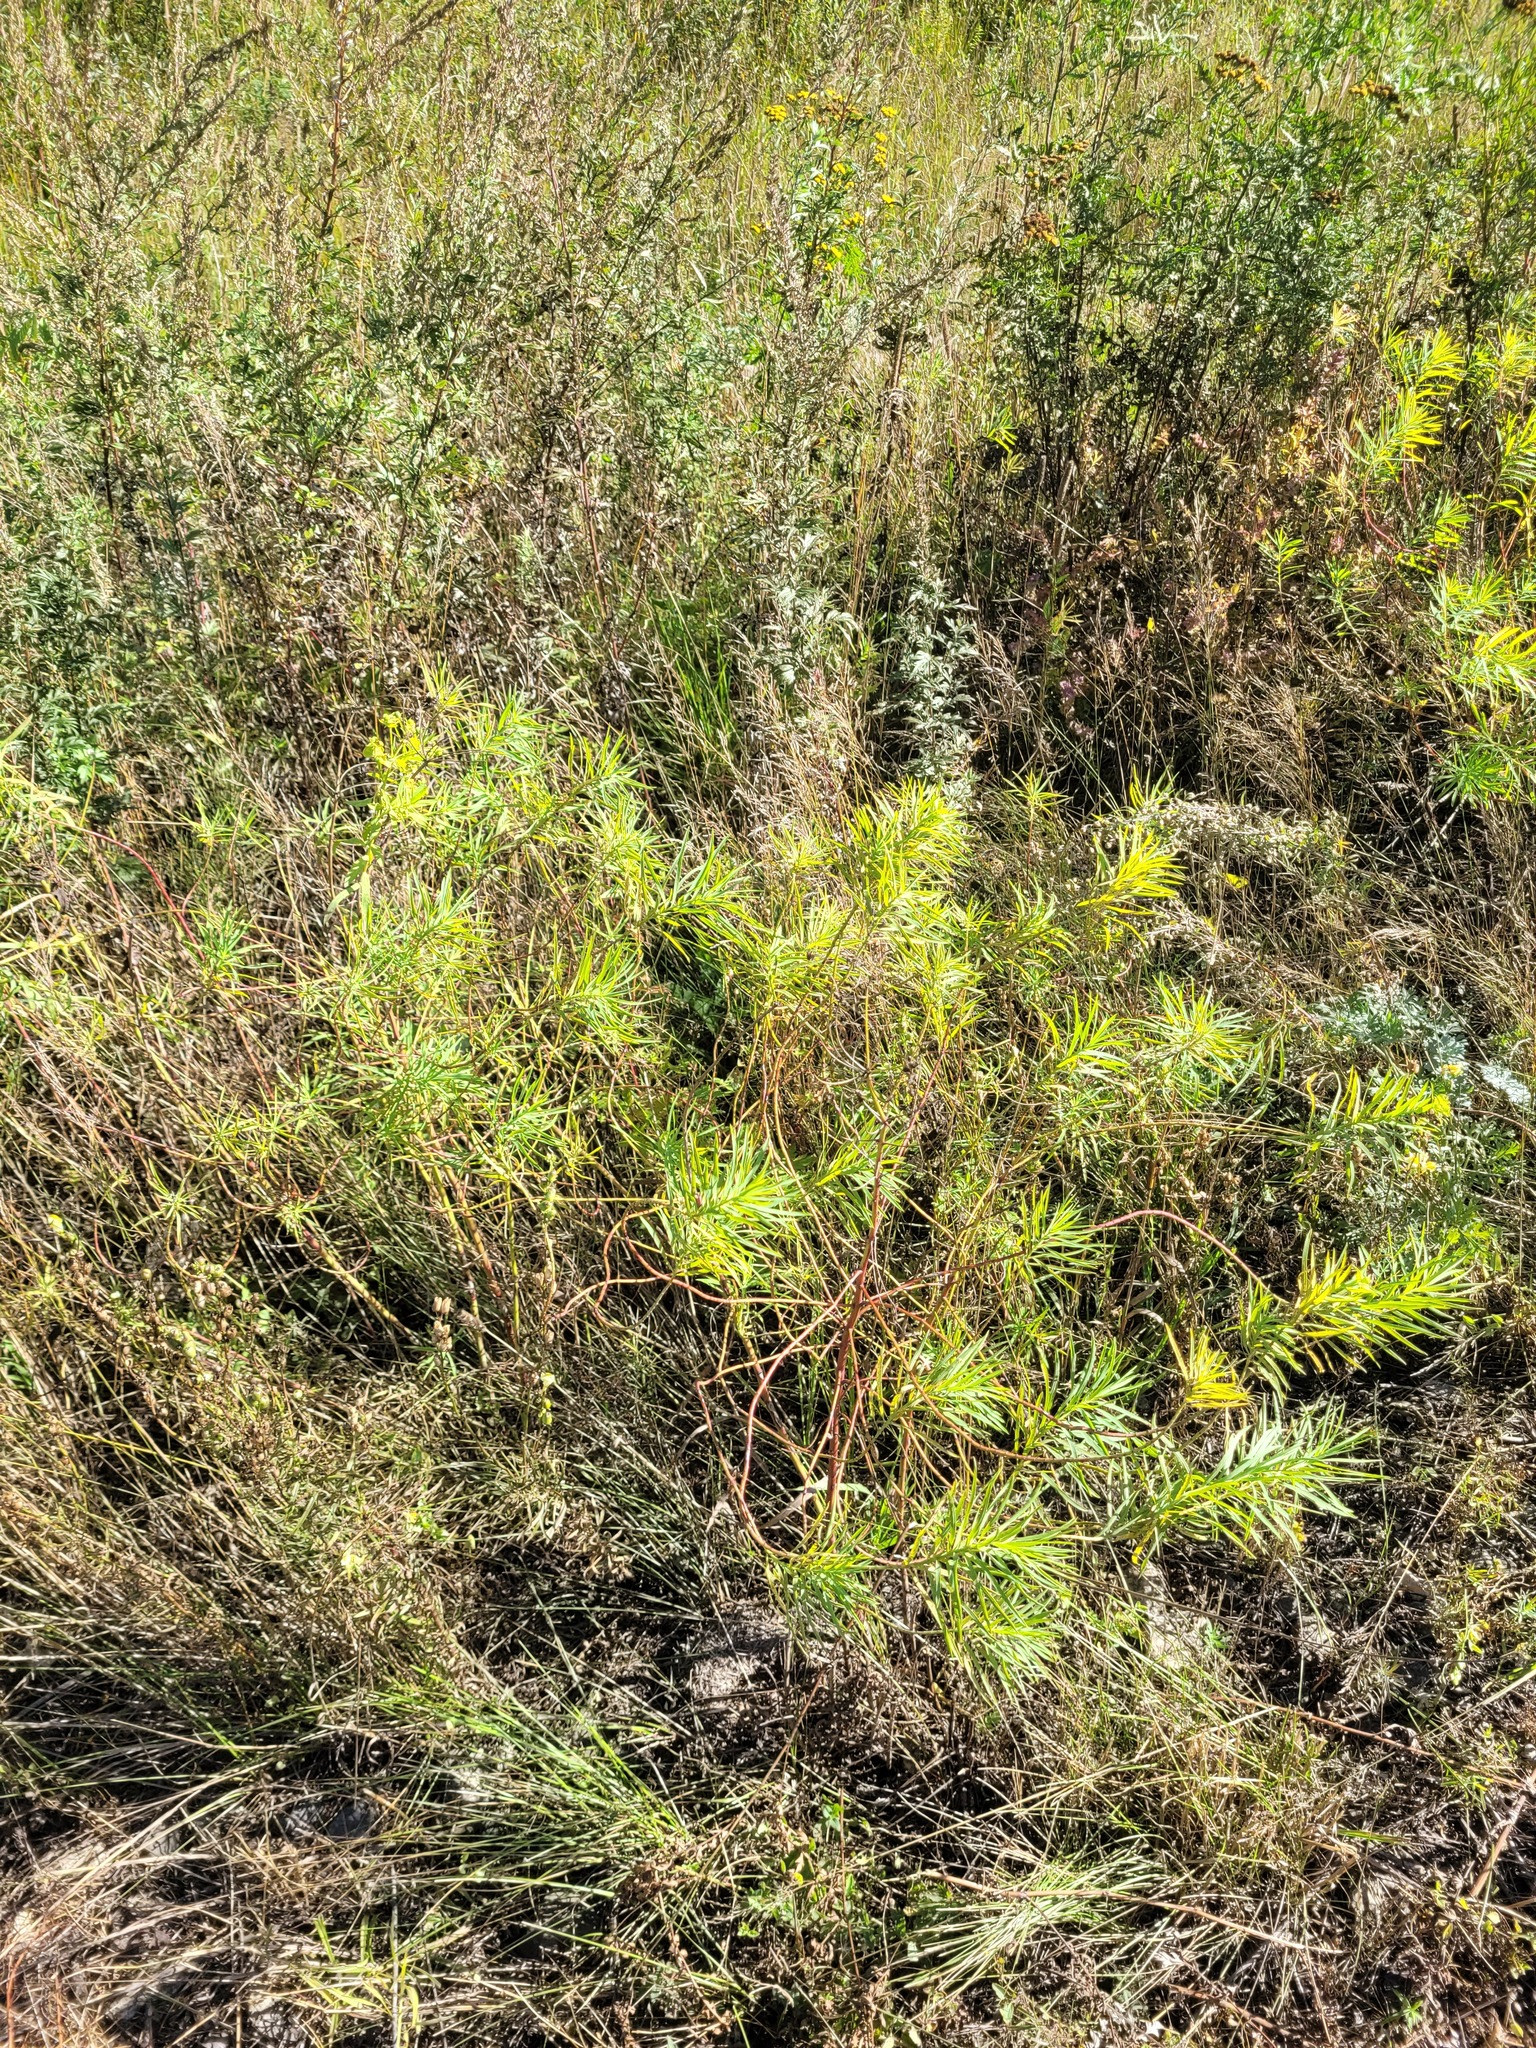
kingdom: Plantae
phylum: Tracheophyta
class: Magnoliopsida
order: Malpighiales
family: Euphorbiaceae
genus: Euphorbia
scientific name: Euphorbia virgata
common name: Leafy spurge
